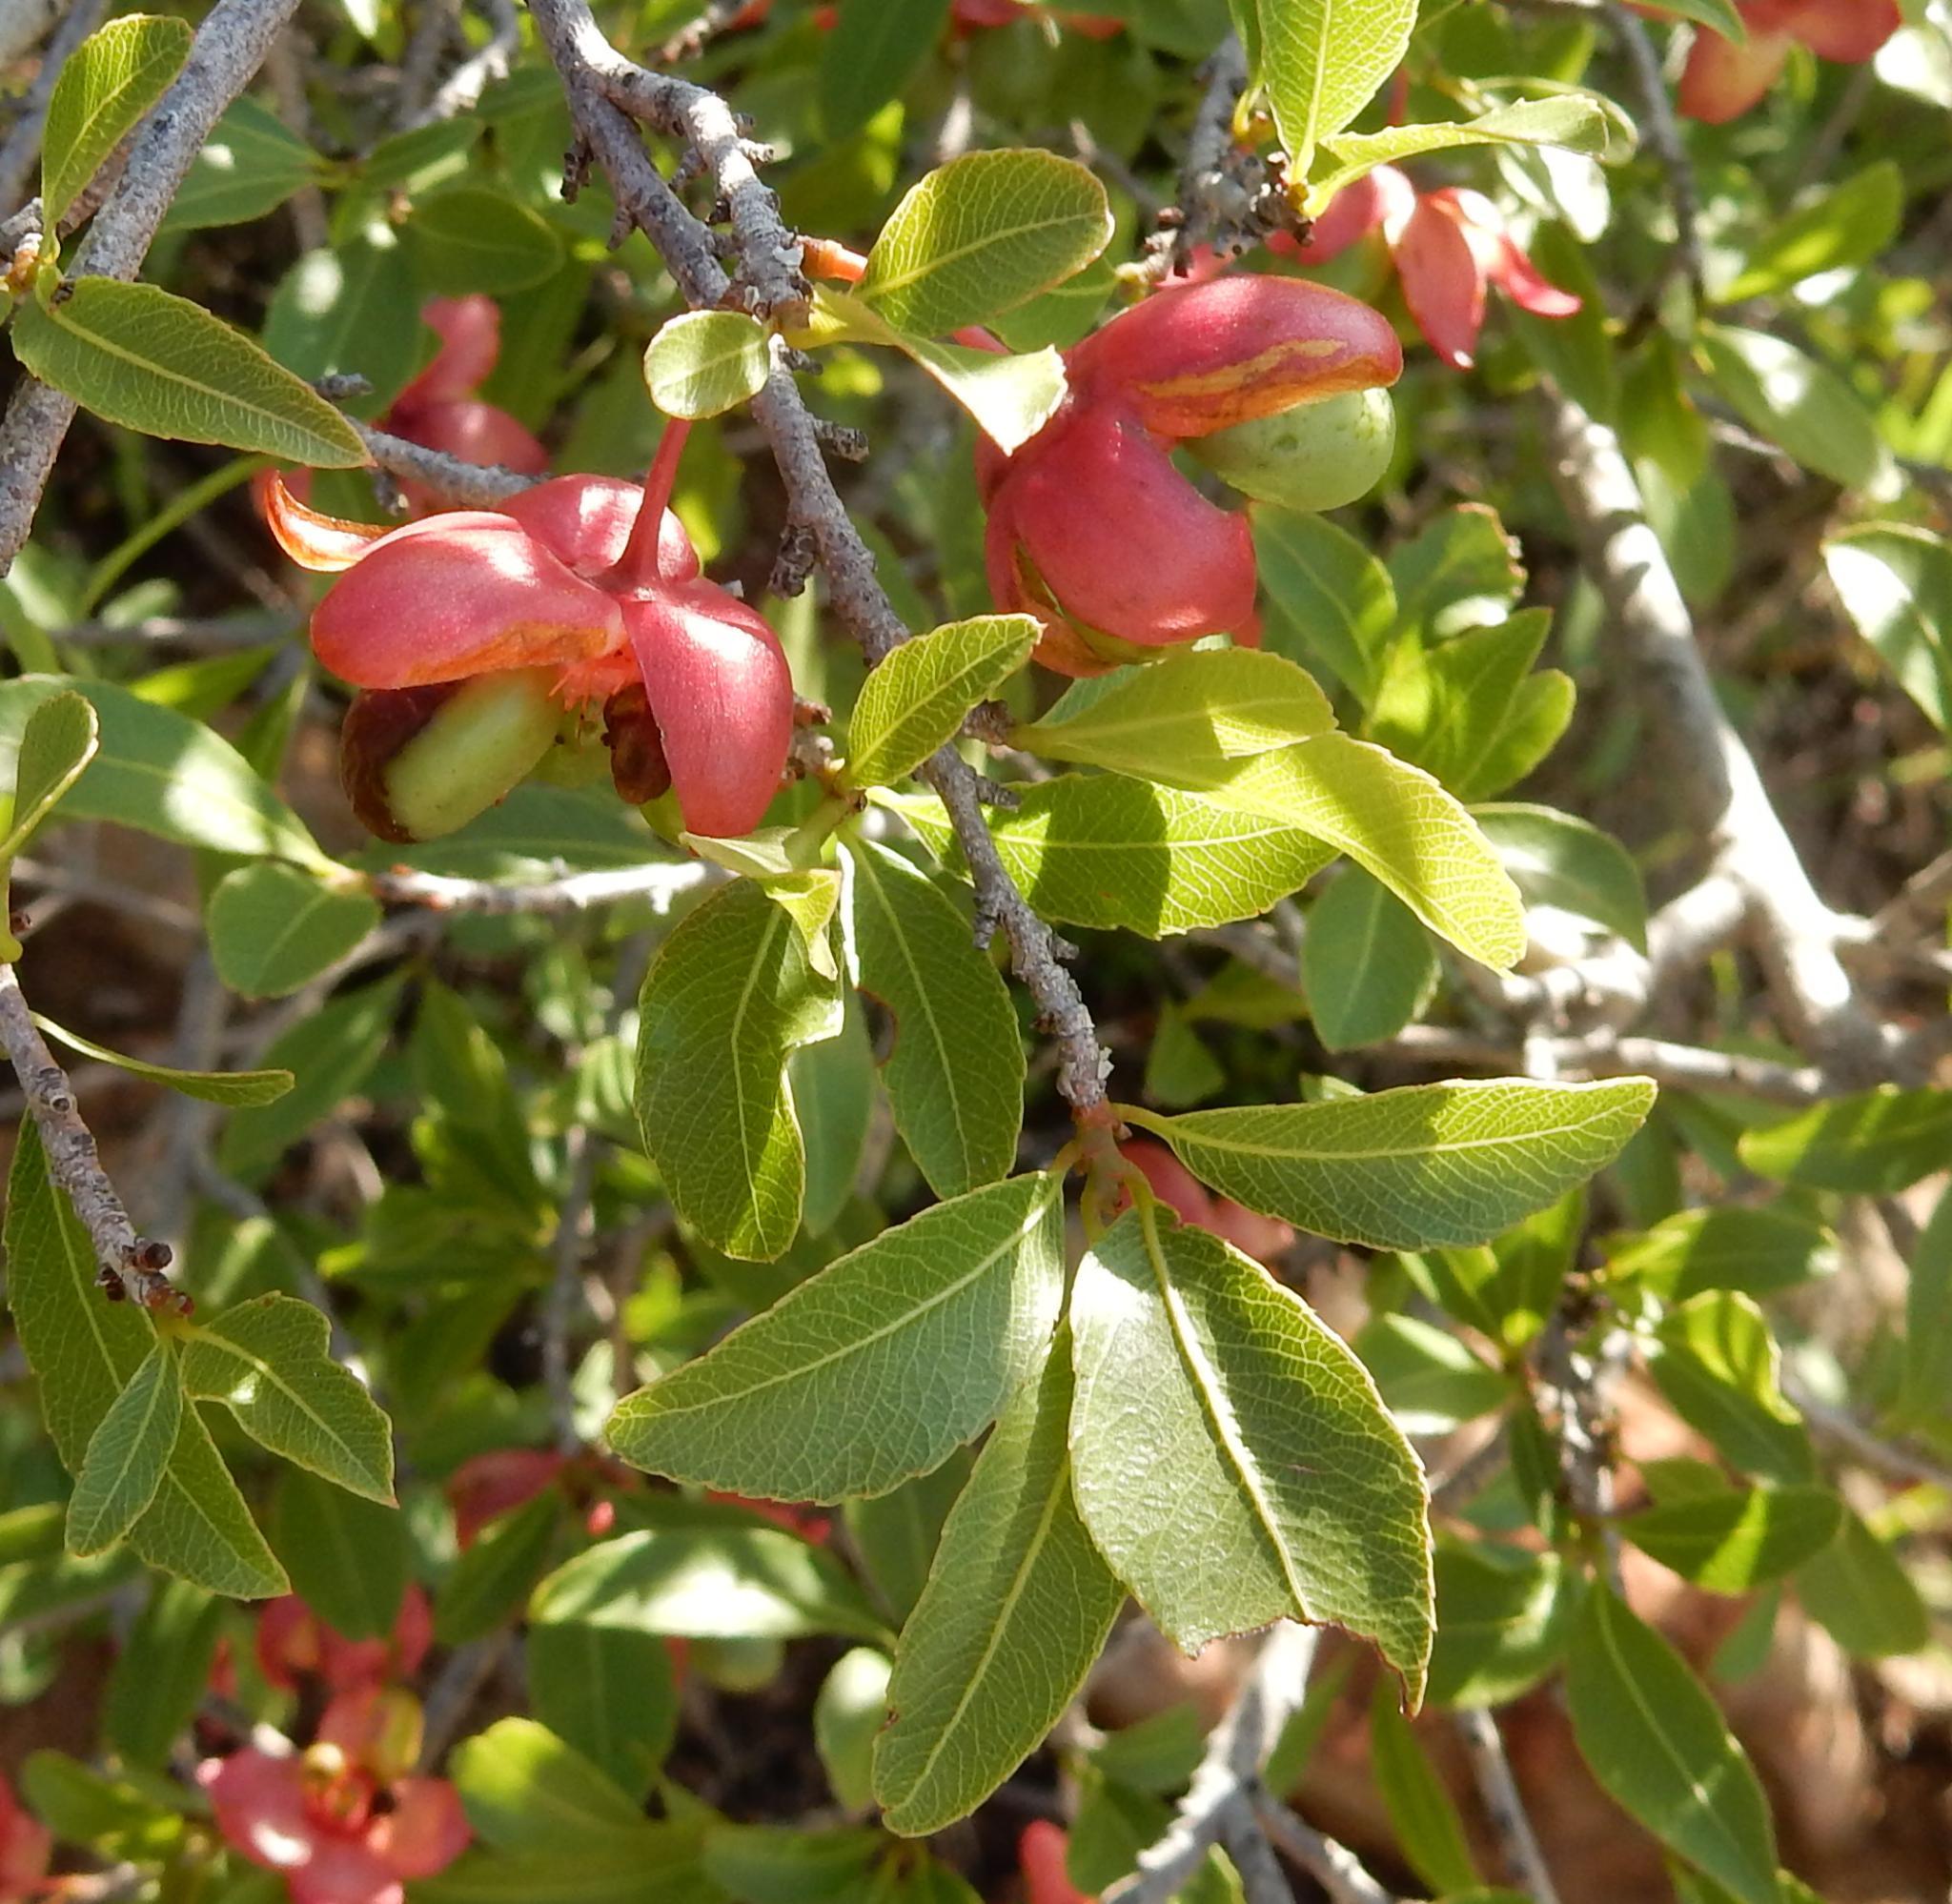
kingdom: Plantae
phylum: Tracheophyta
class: Magnoliopsida
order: Malpighiales
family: Ochnaceae
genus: Ochna
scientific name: Ochna pretoriensis
